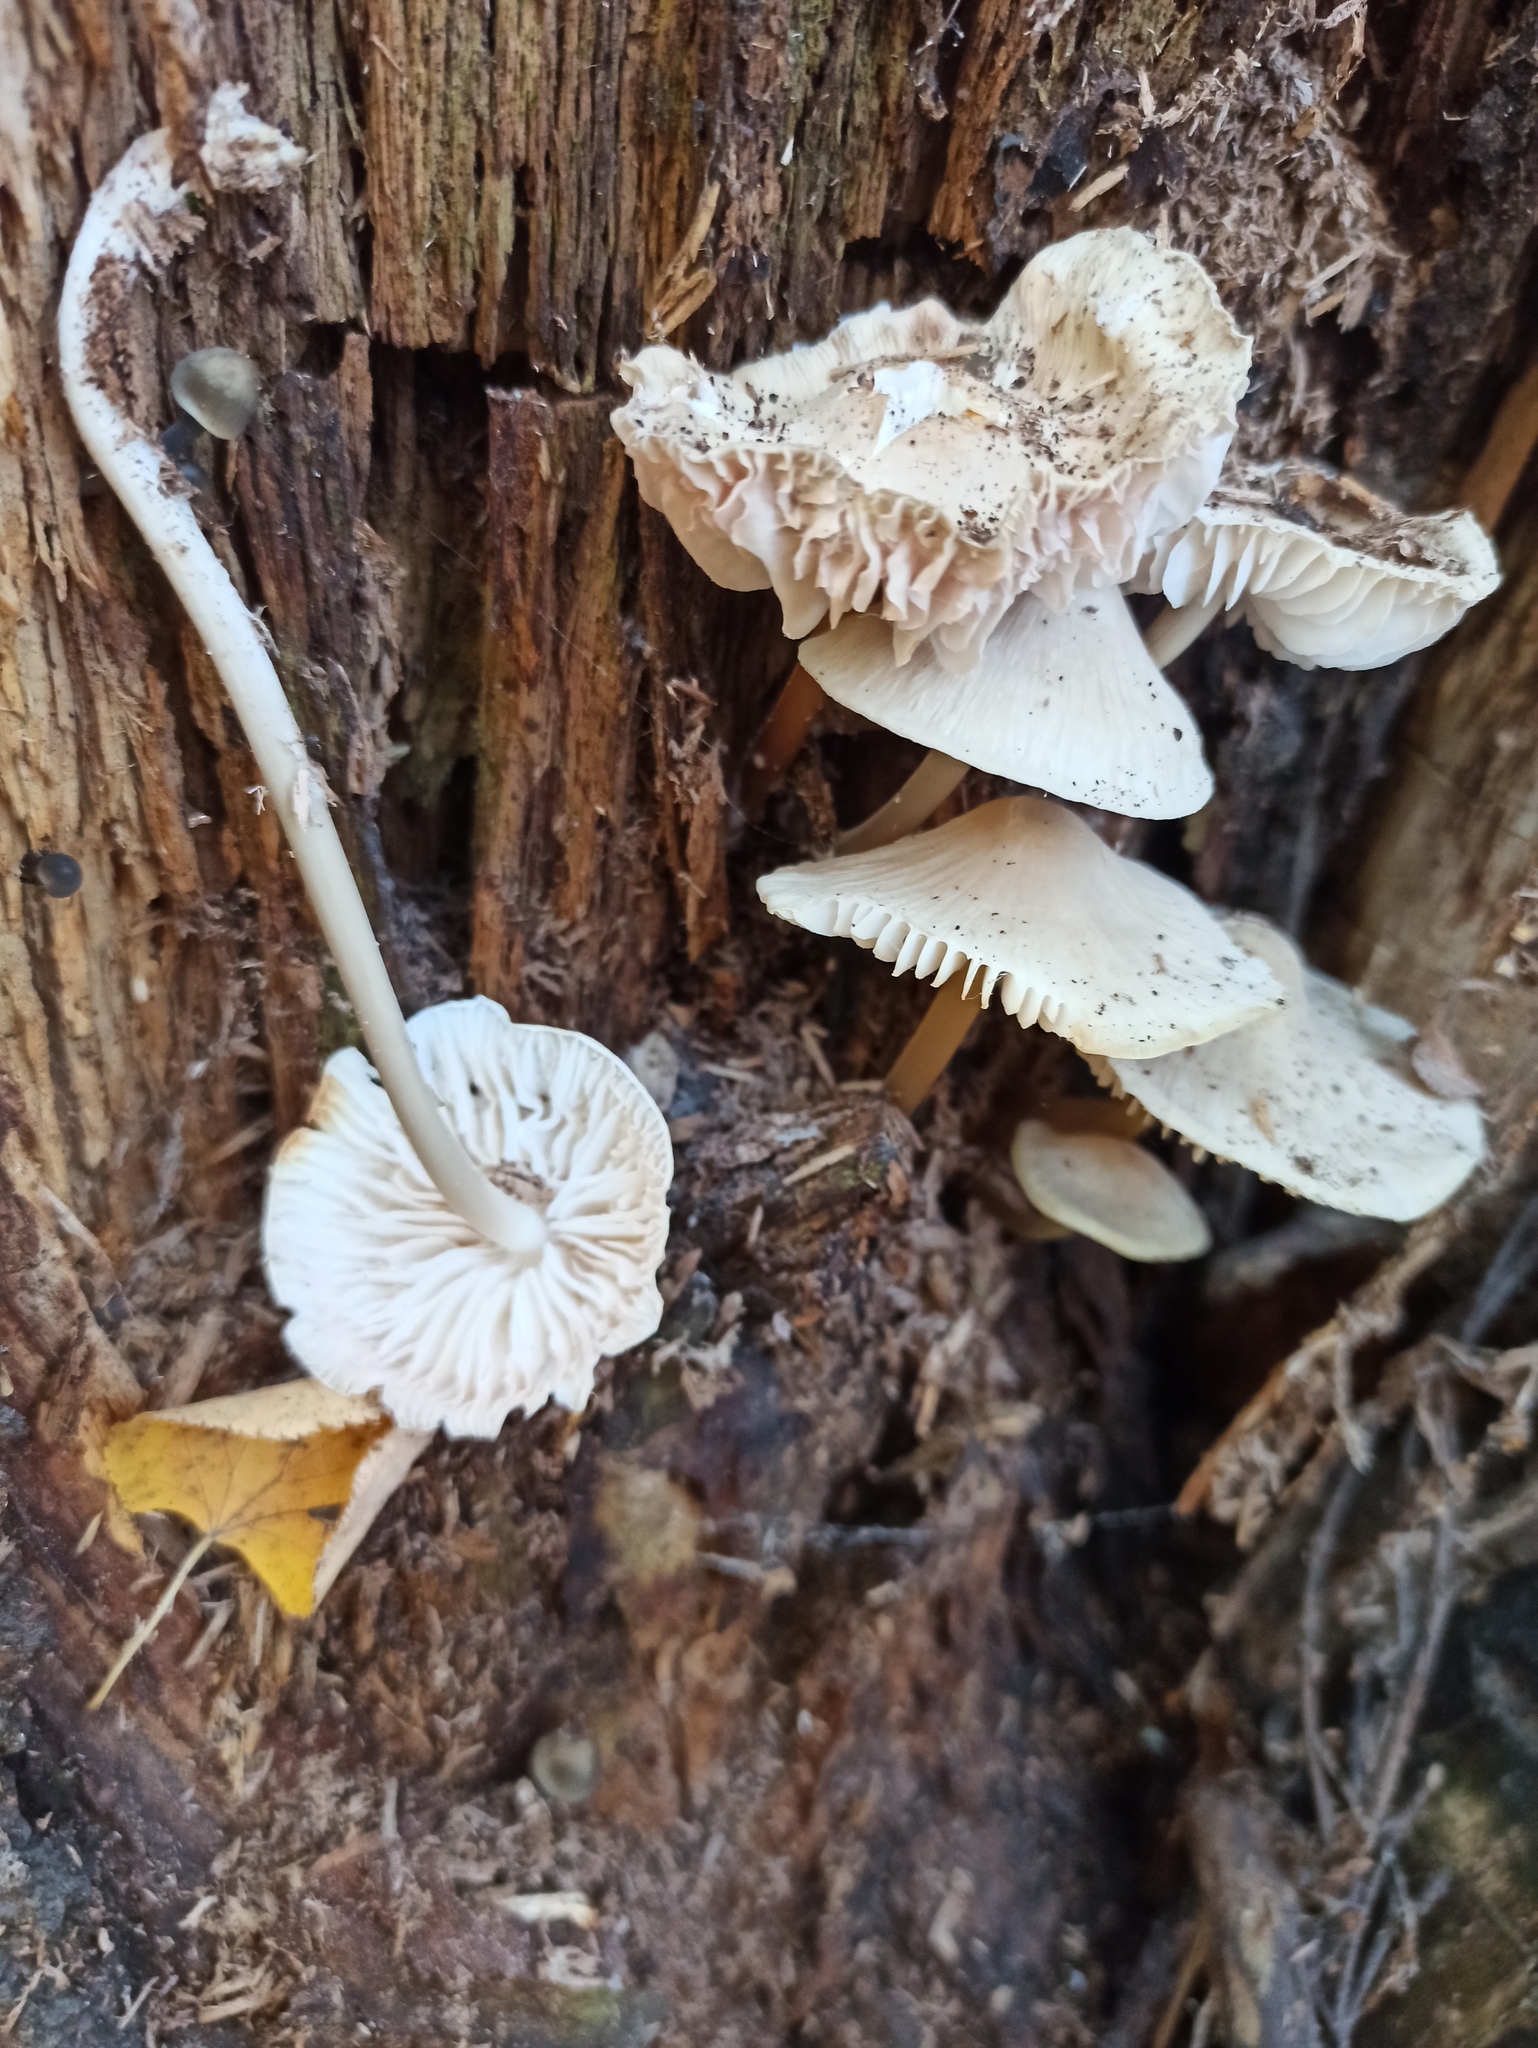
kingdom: Fungi
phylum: Basidiomycota
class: Agaricomycetes
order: Agaricales
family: Mycenaceae
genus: Mycena
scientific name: Mycena galericulata
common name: Bonnet mycena
